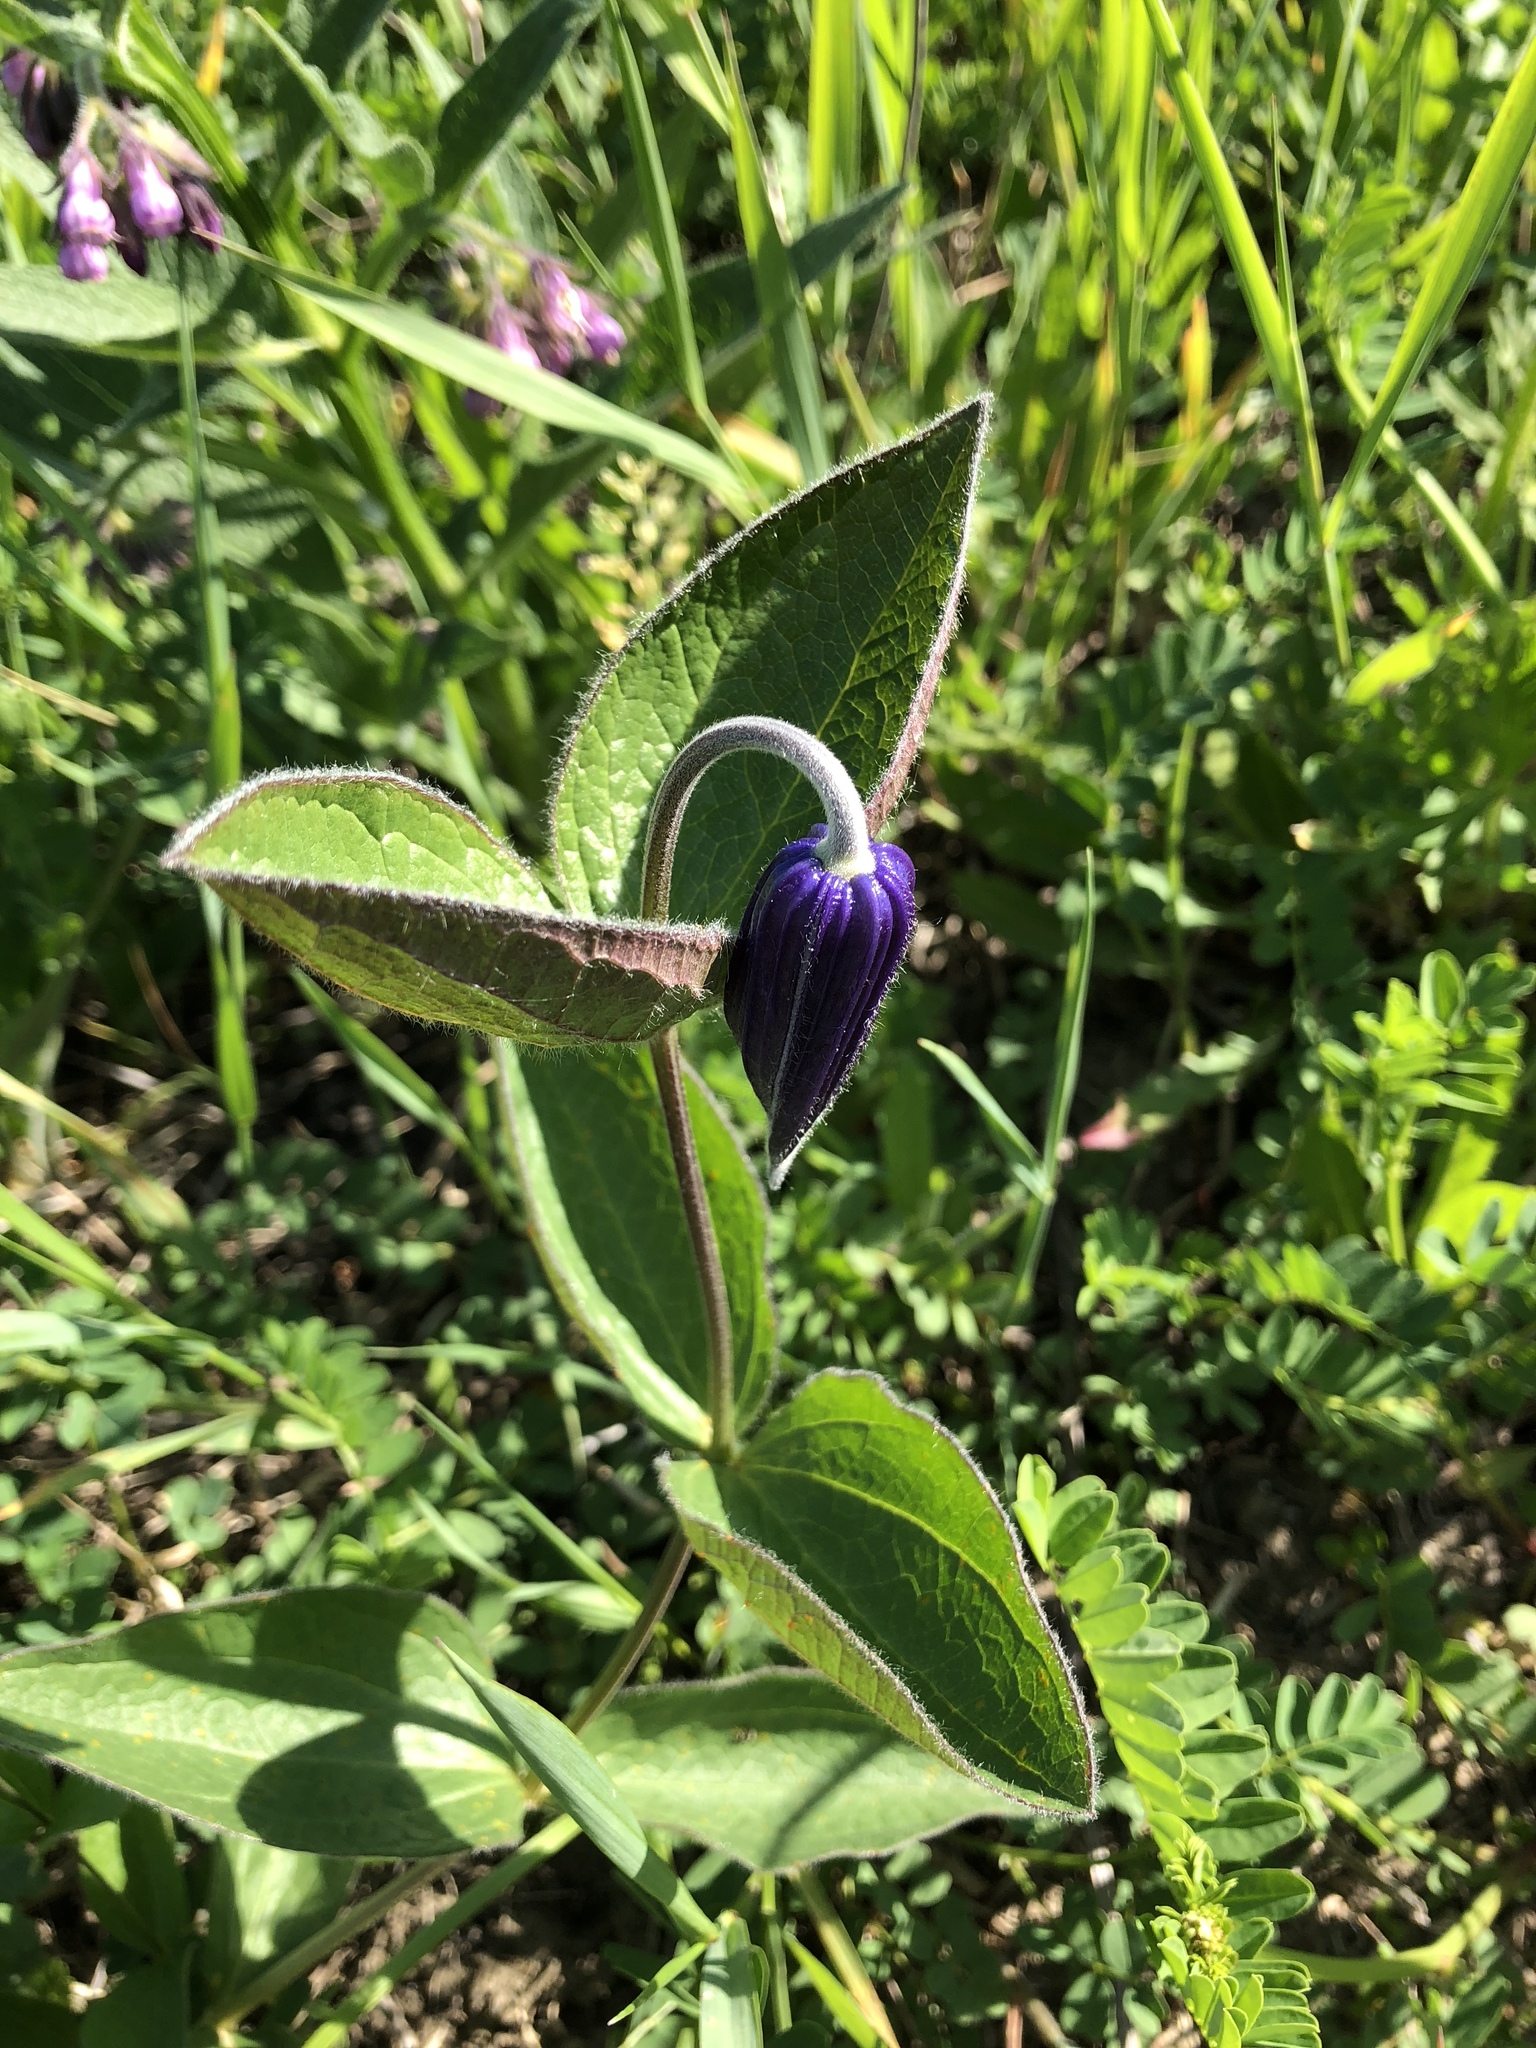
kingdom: Plantae
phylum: Tracheophyta
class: Magnoliopsida
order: Ranunculales
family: Ranunculaceae
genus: Clematis
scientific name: Clematis integrifolia
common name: Solitary clematis
